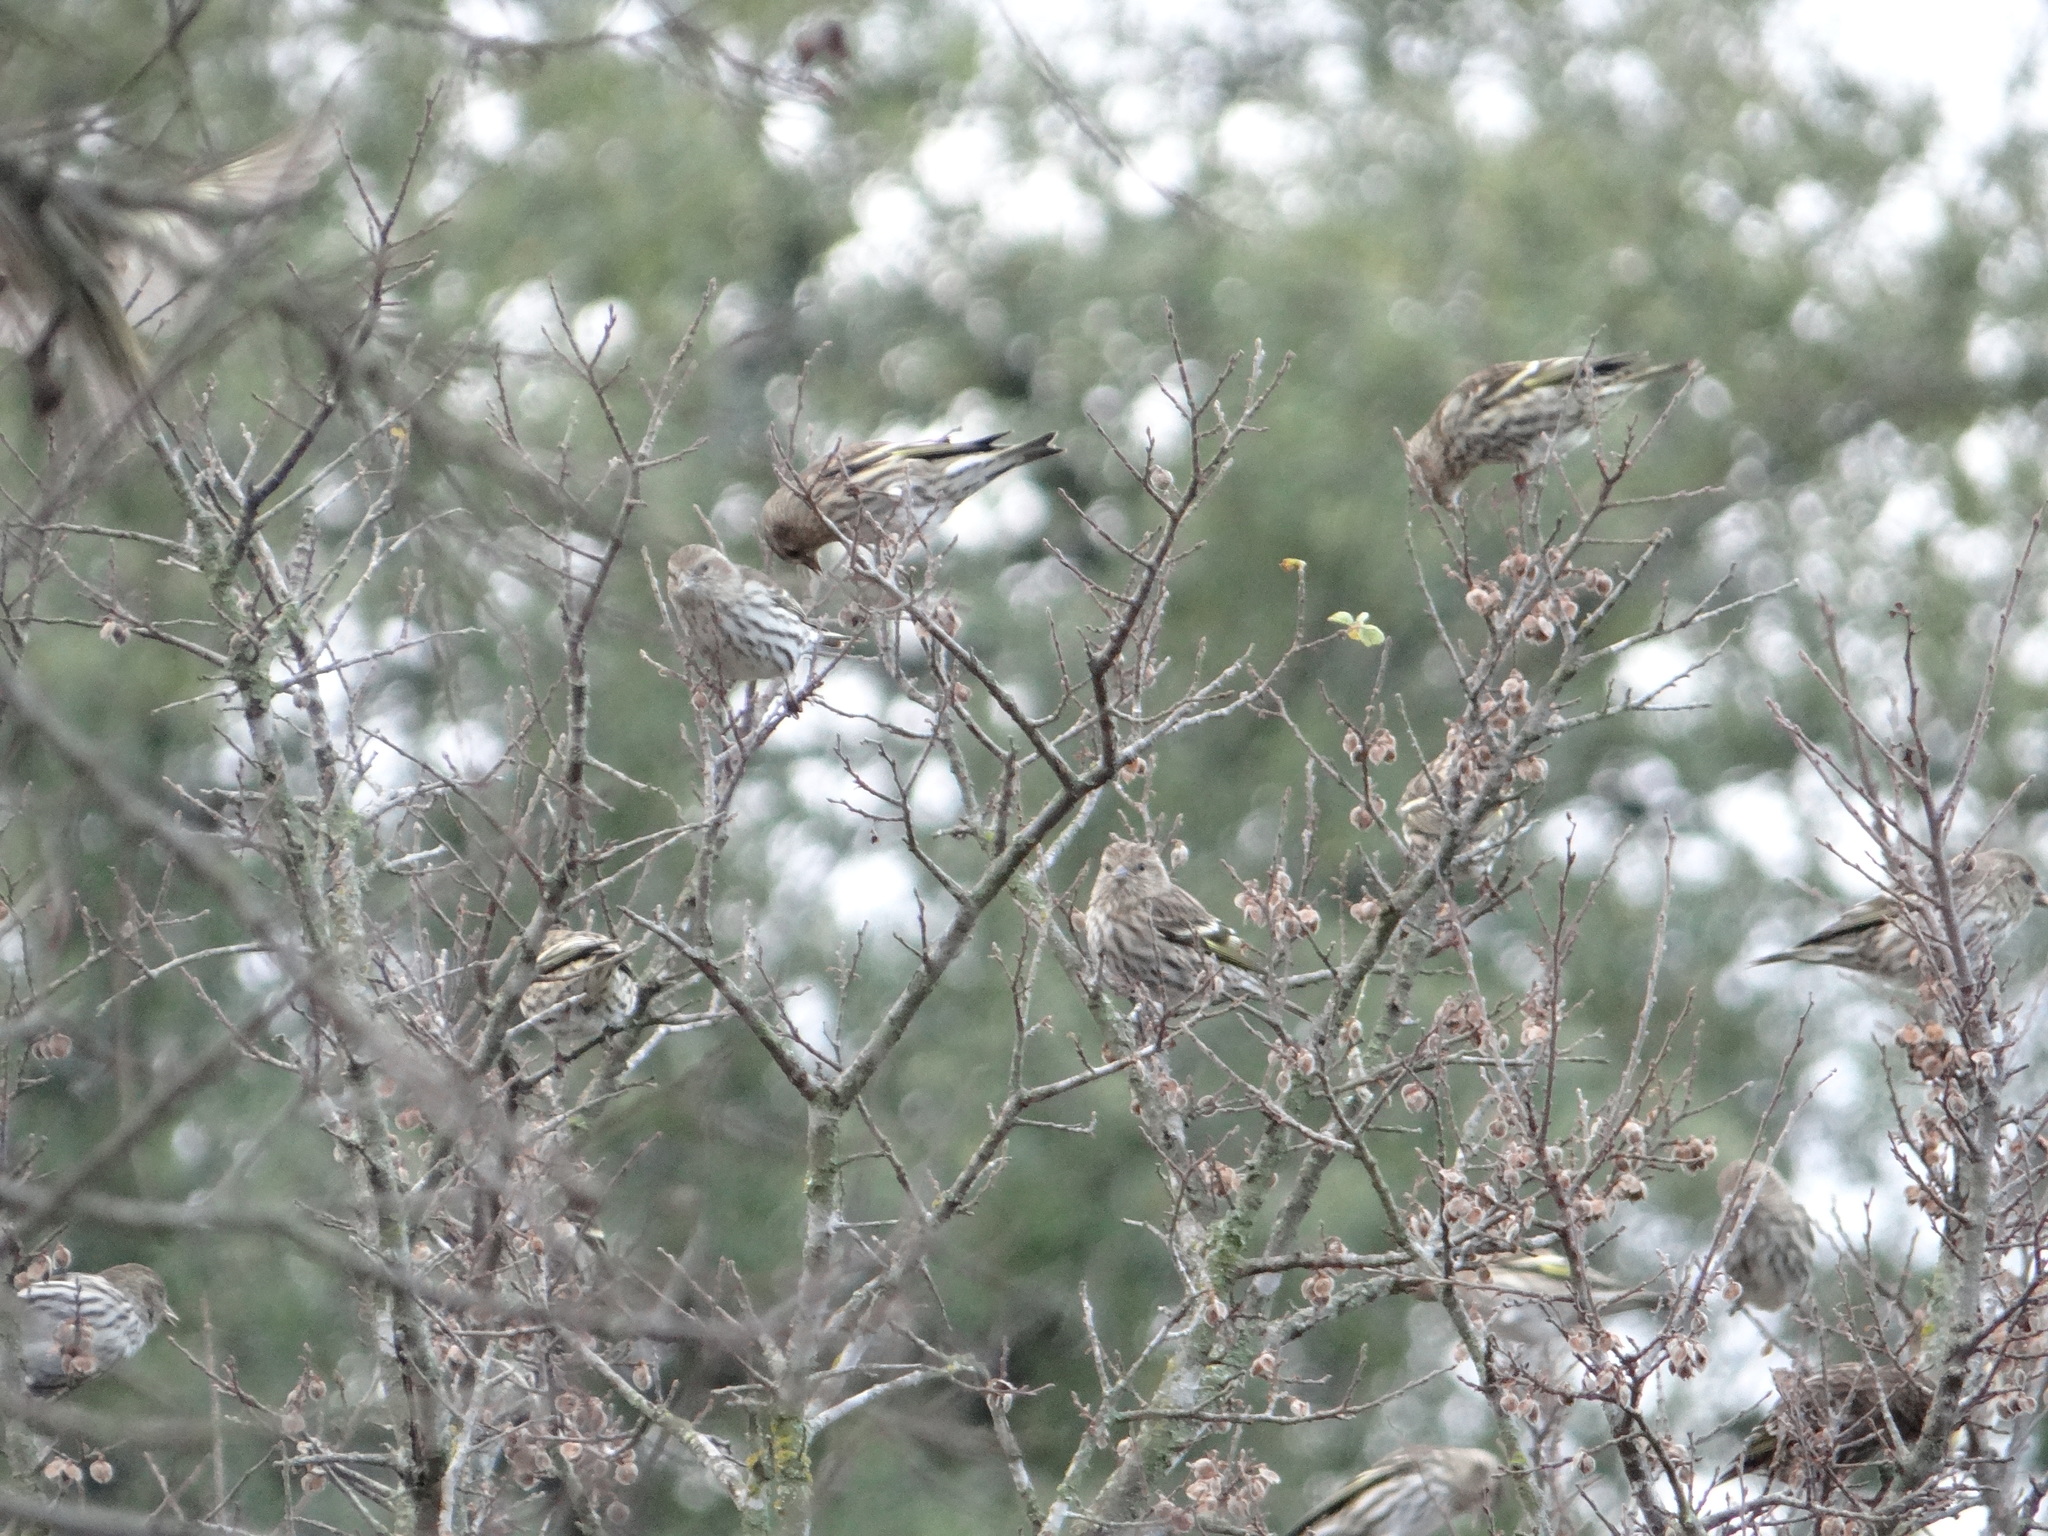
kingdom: Animalia
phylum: Chordata
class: Aves
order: Passeriformes
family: Fringillidae
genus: Spinus
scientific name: Spinus pinus
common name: Pine siskin
